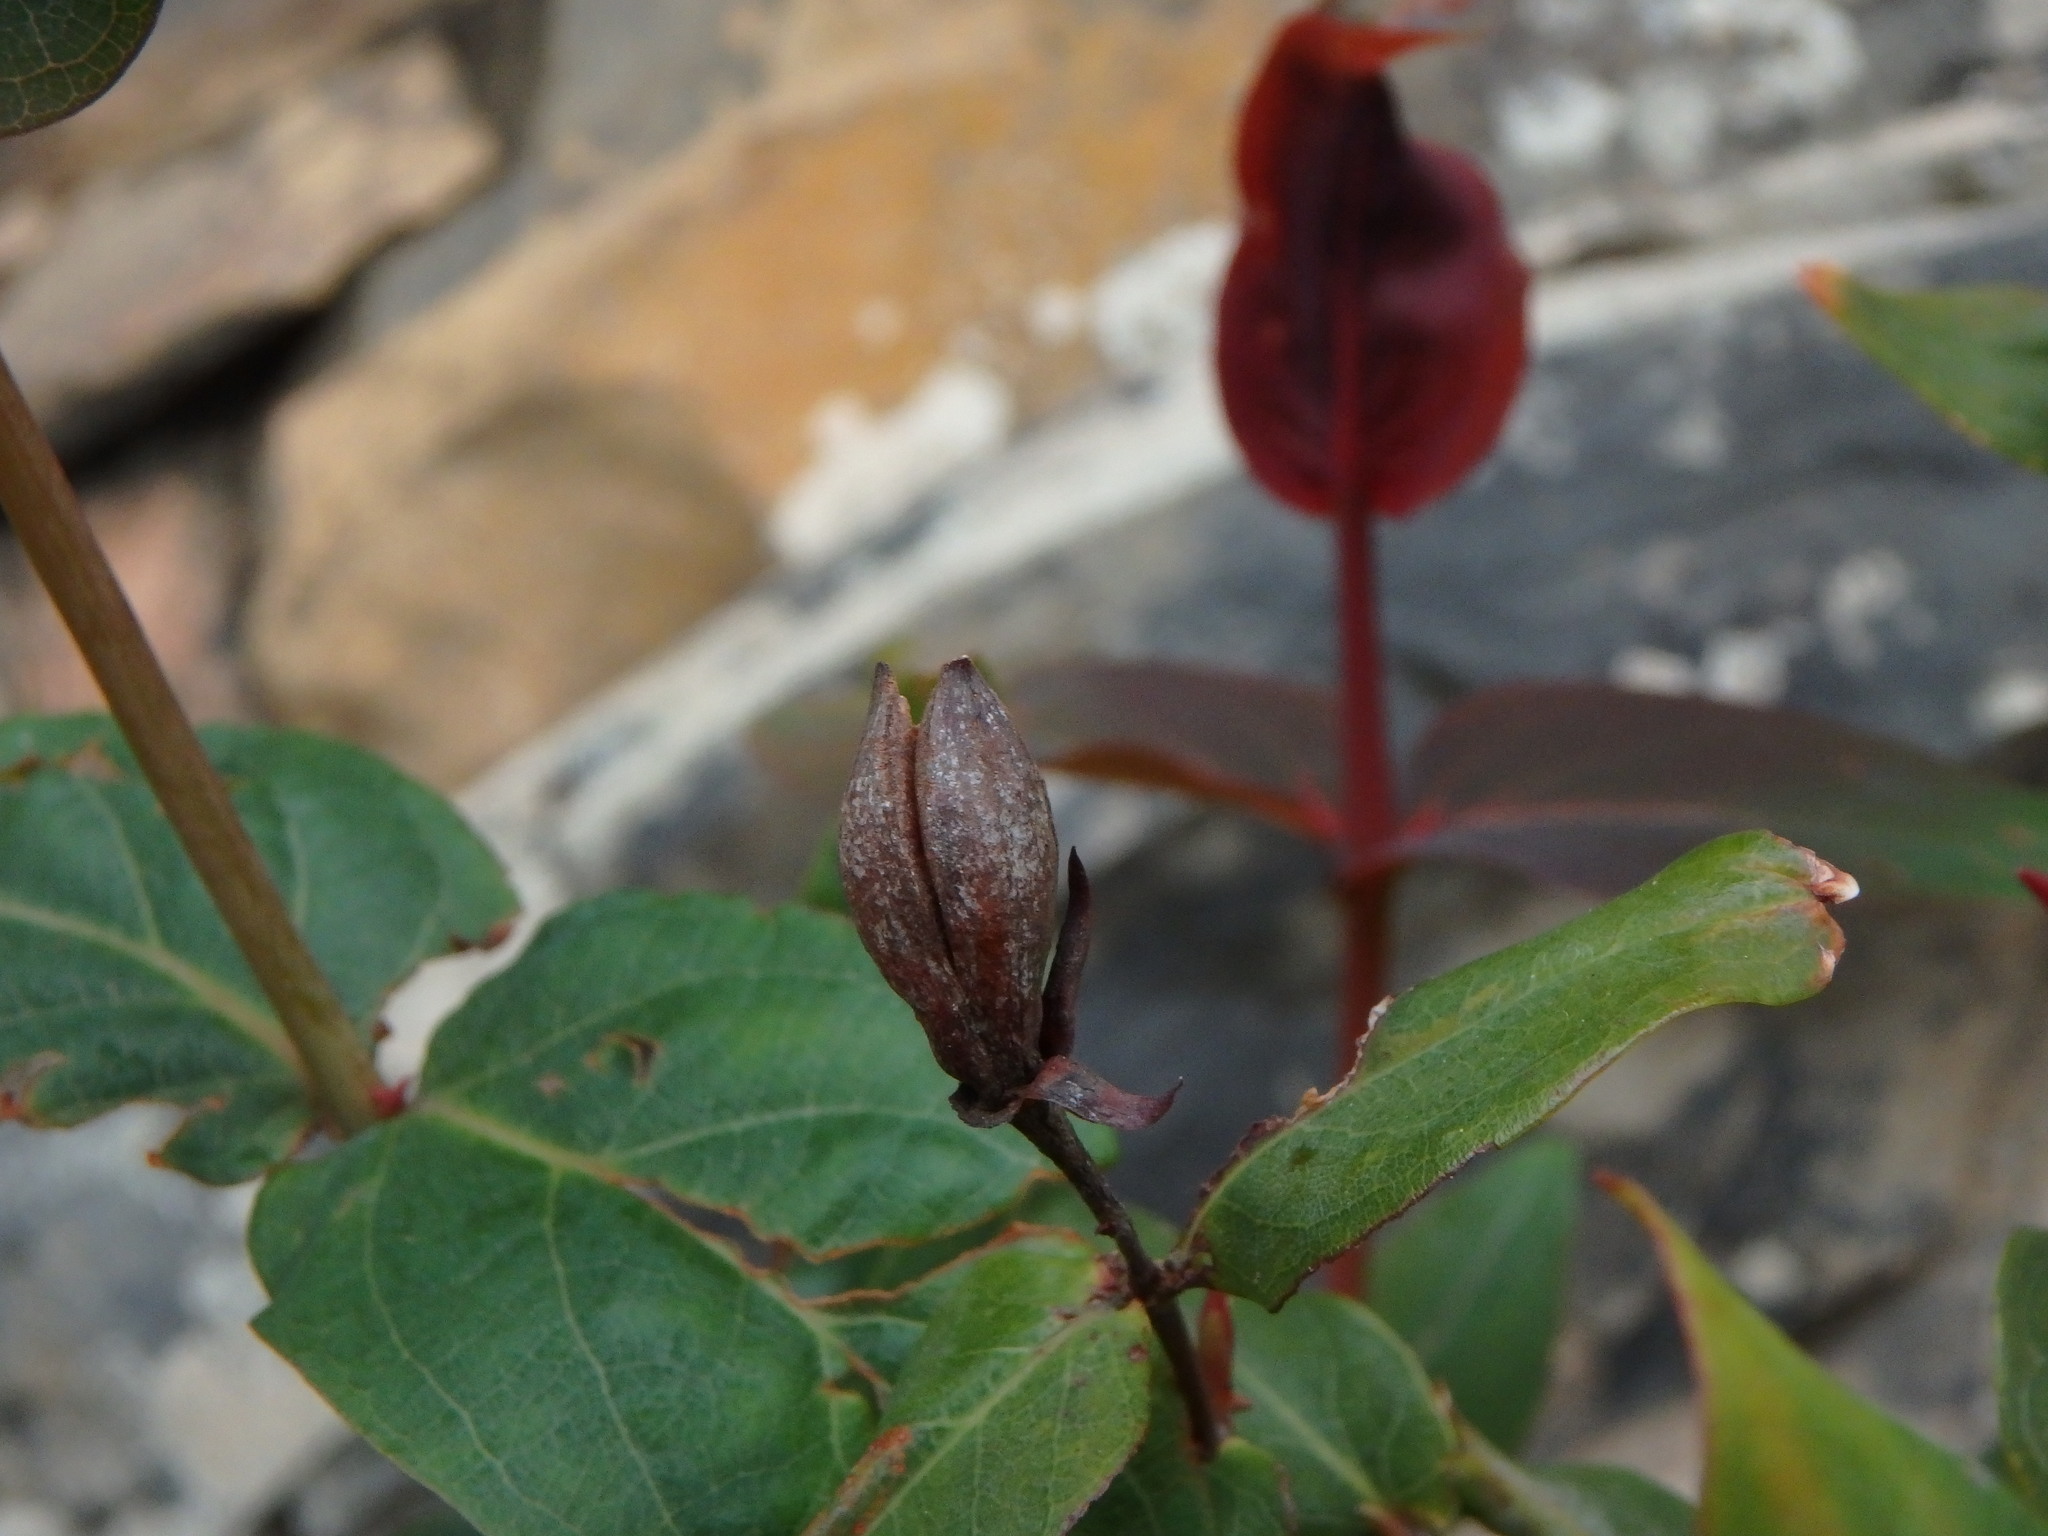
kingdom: Plantae
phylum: Tracheophyta
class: Magnoliopsida
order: Malpighiales
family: Hypericaceae
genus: Hypericum
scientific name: Hypericum grandifolium
